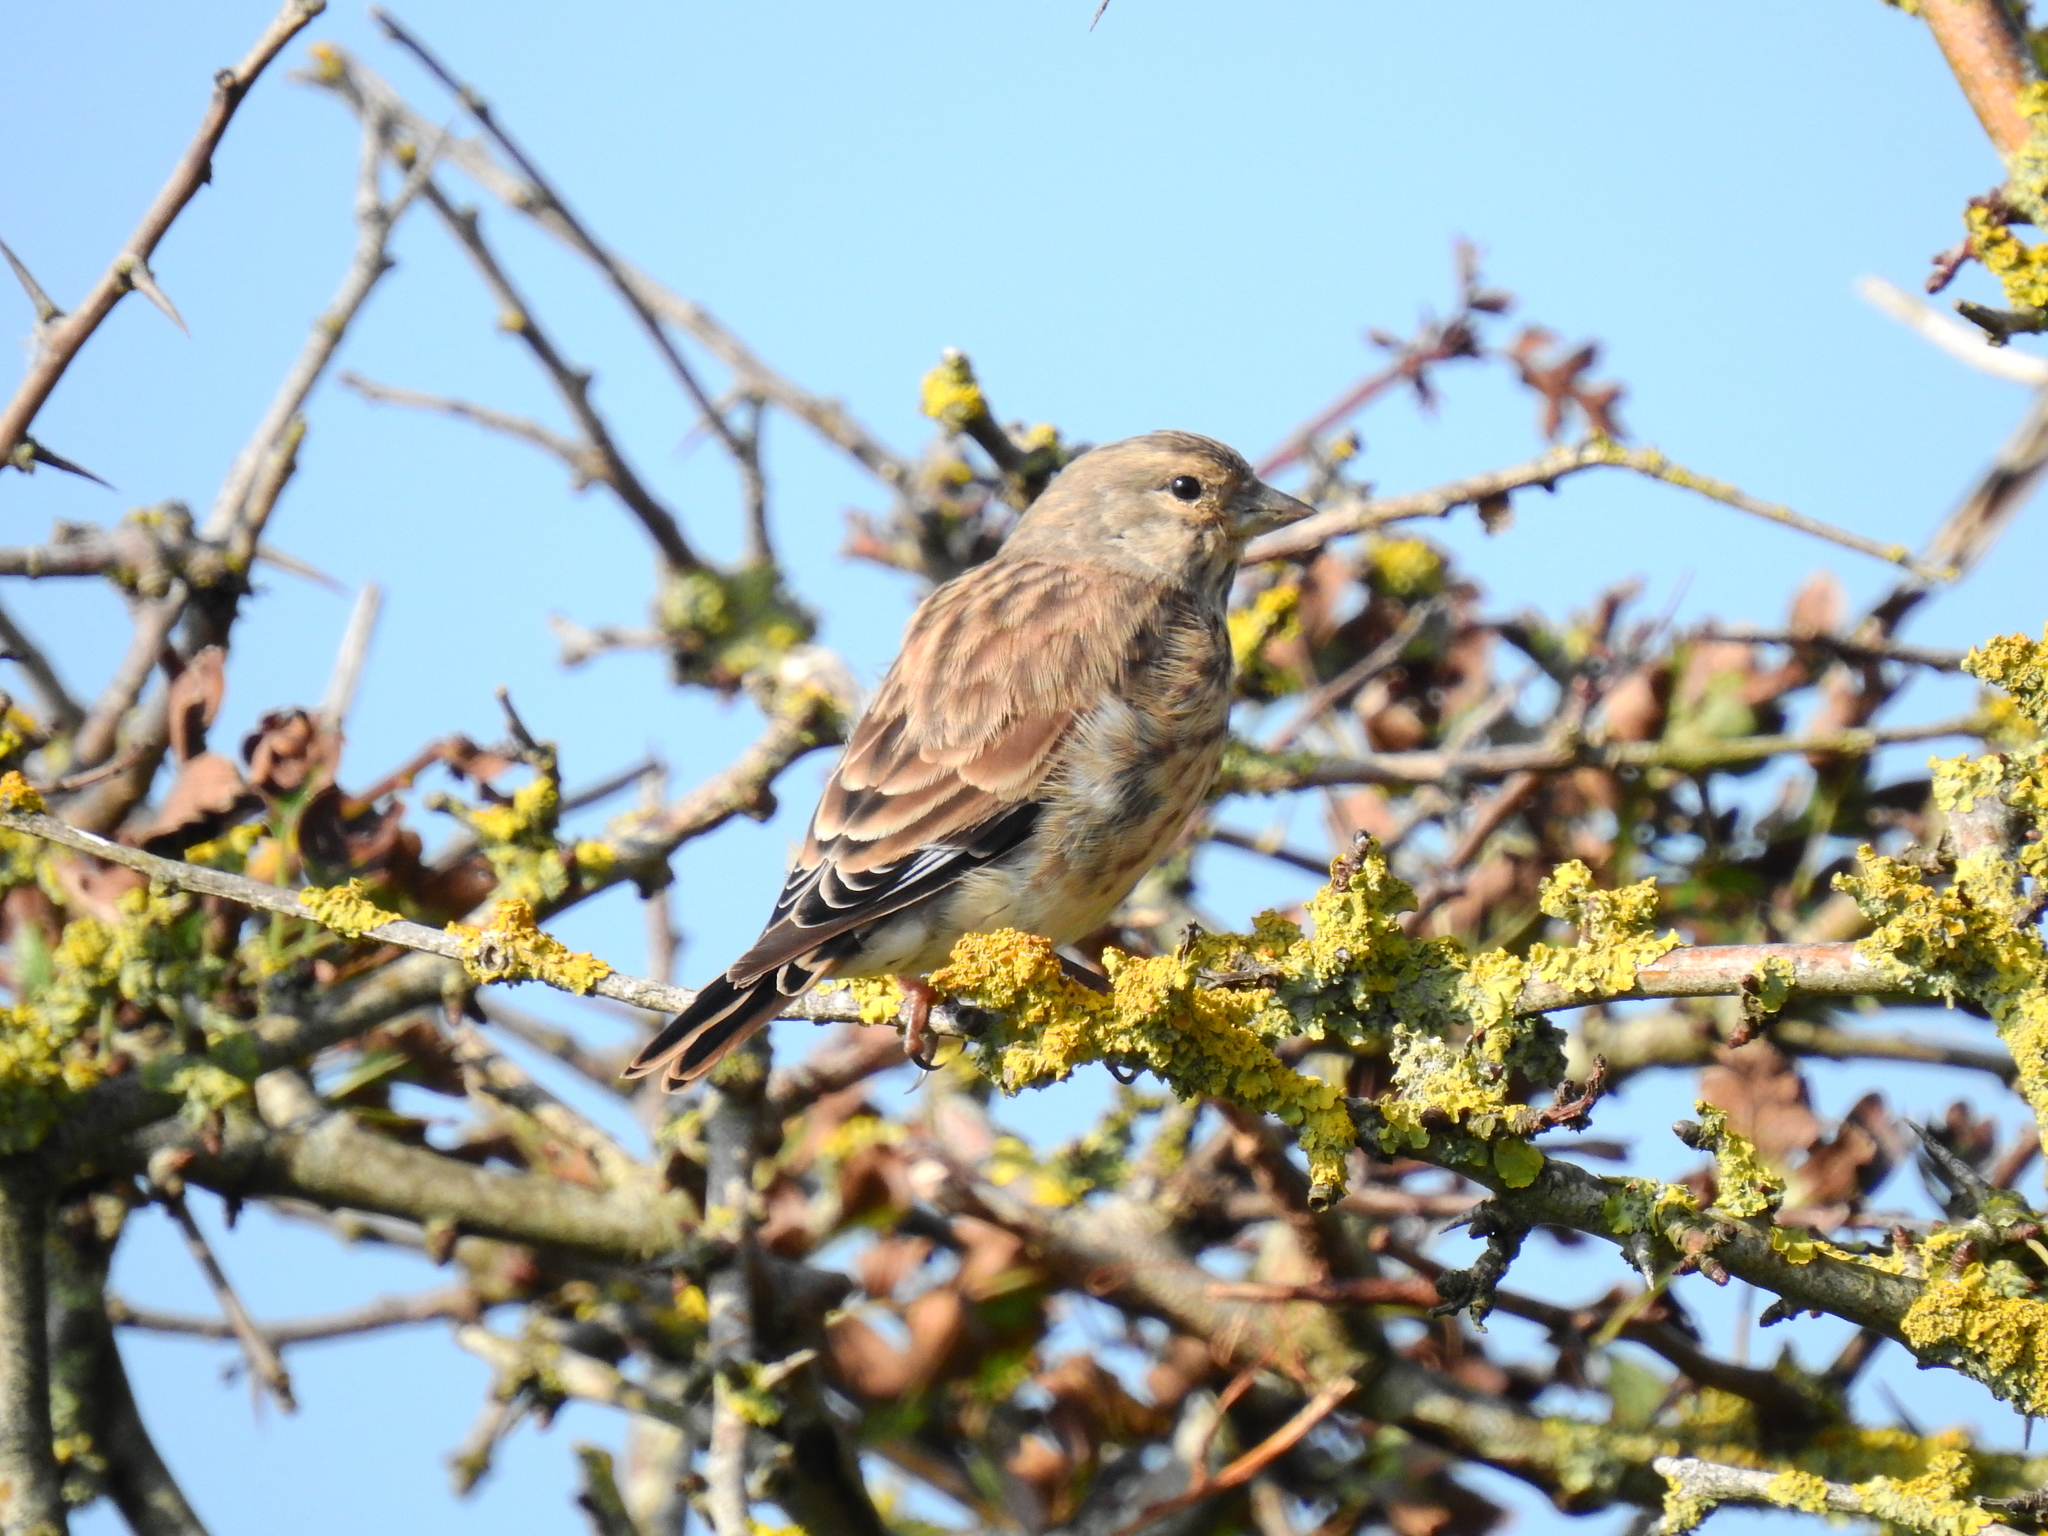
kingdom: Animalia
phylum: Chordata
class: Aves
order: Passeriformes
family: Fringillidae
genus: Linaria
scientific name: Linaria cannabina
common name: Common linnet
